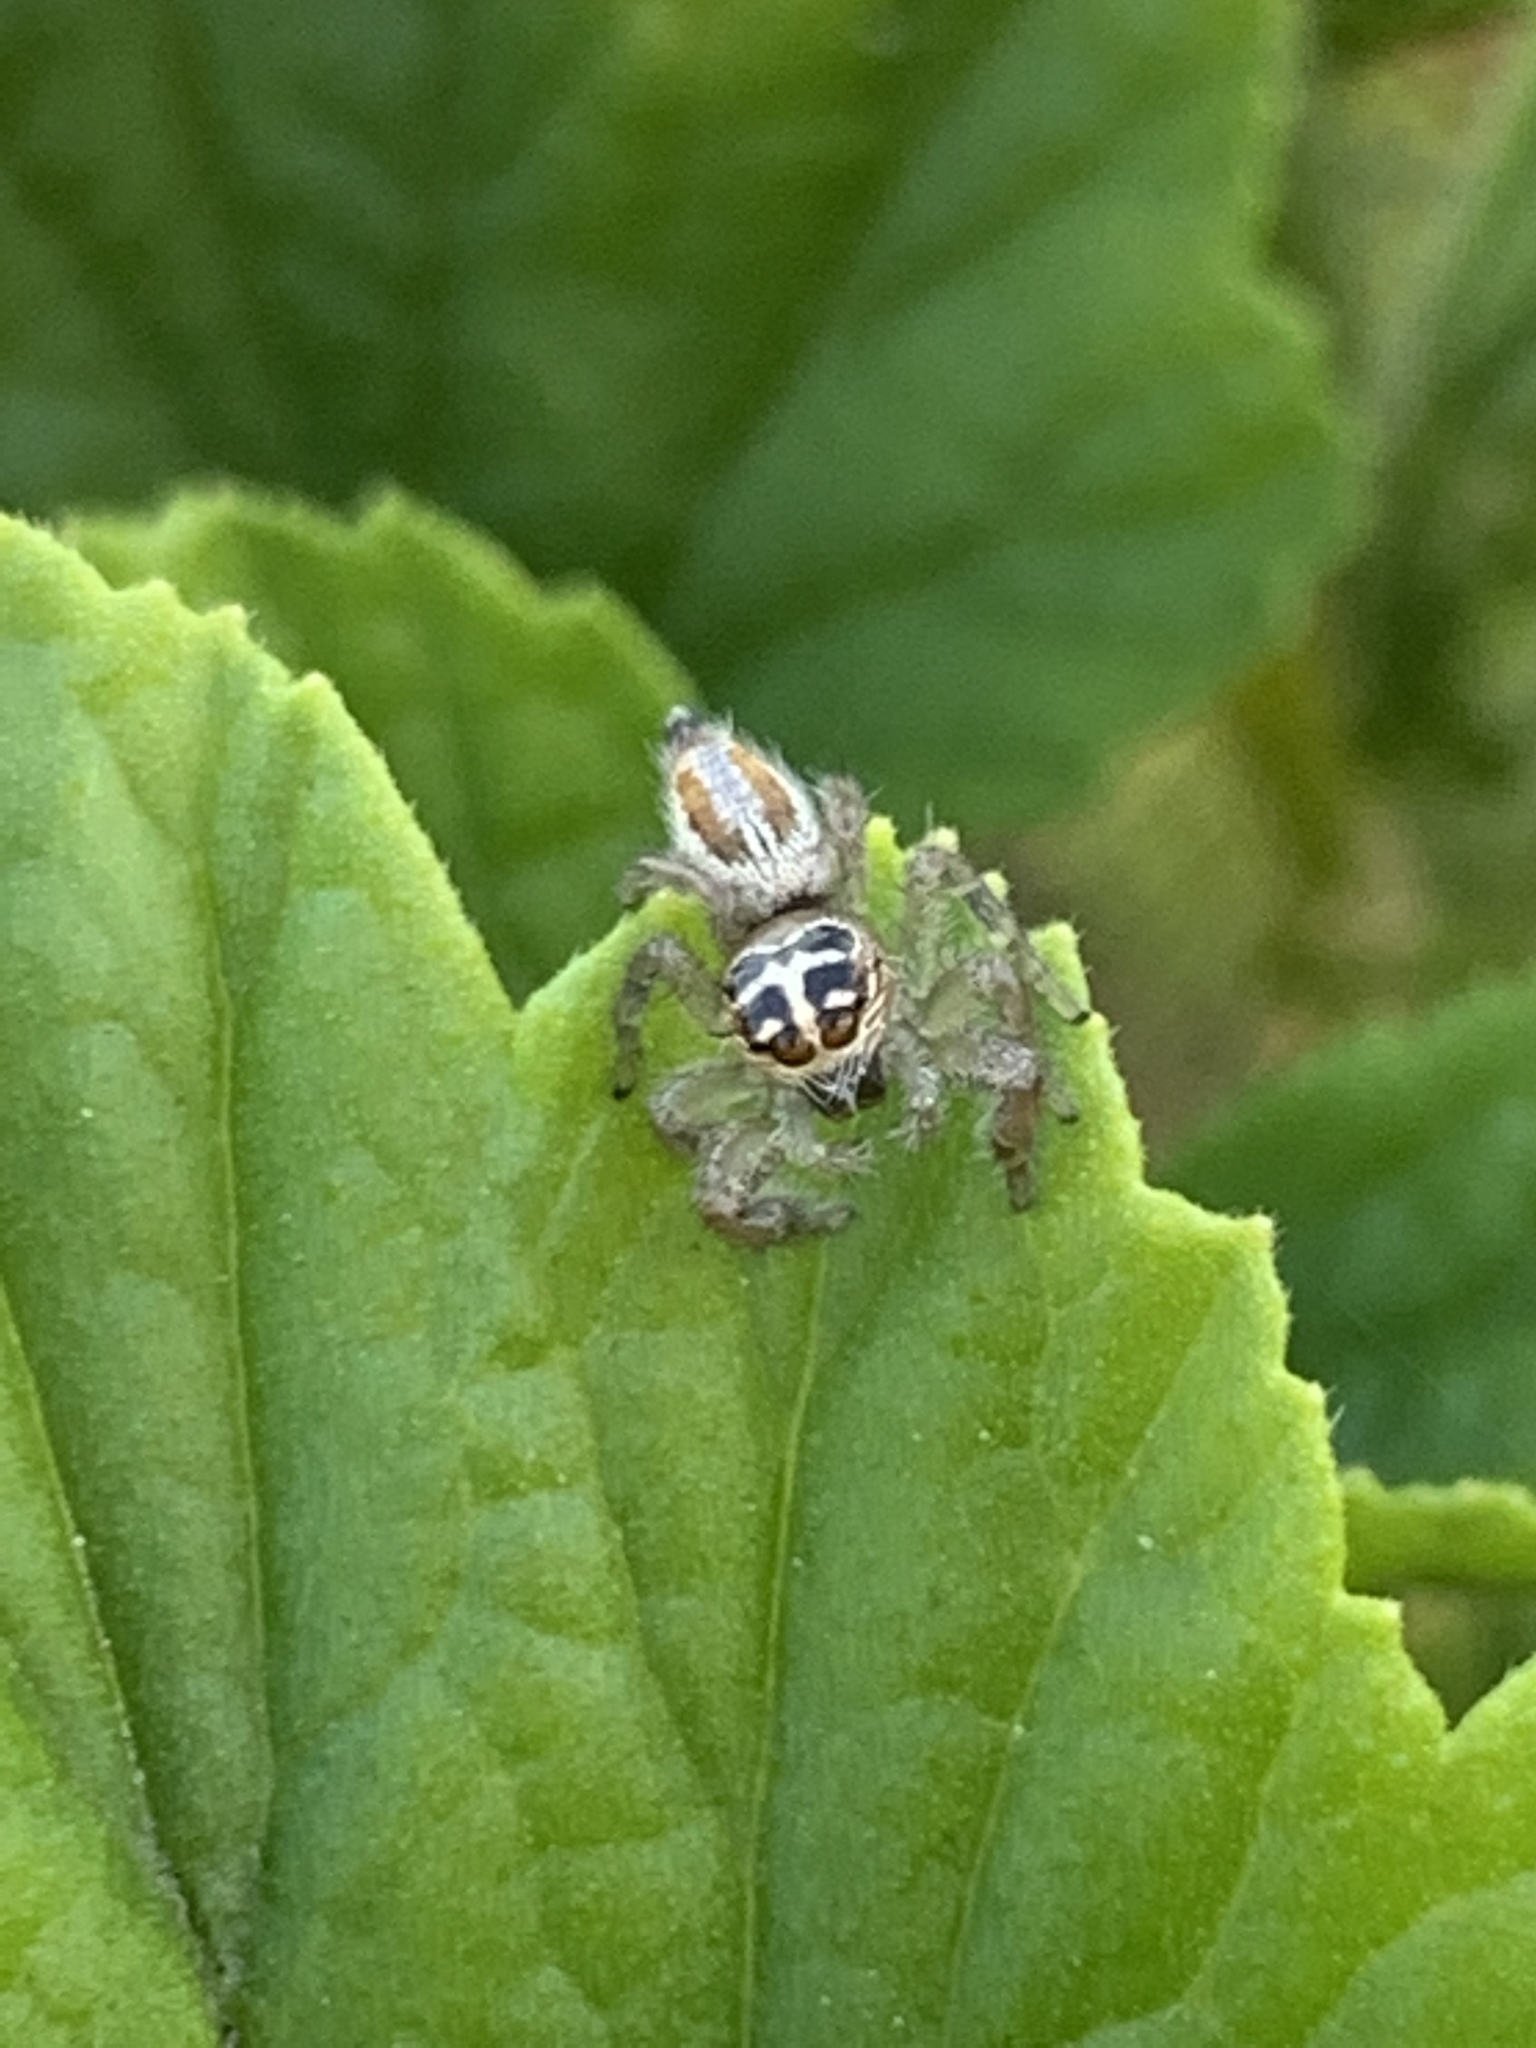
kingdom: Animalia
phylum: Arthropoda
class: Arachnida
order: Araneae
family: Salticidae
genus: Thyene
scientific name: Thyene inflata
